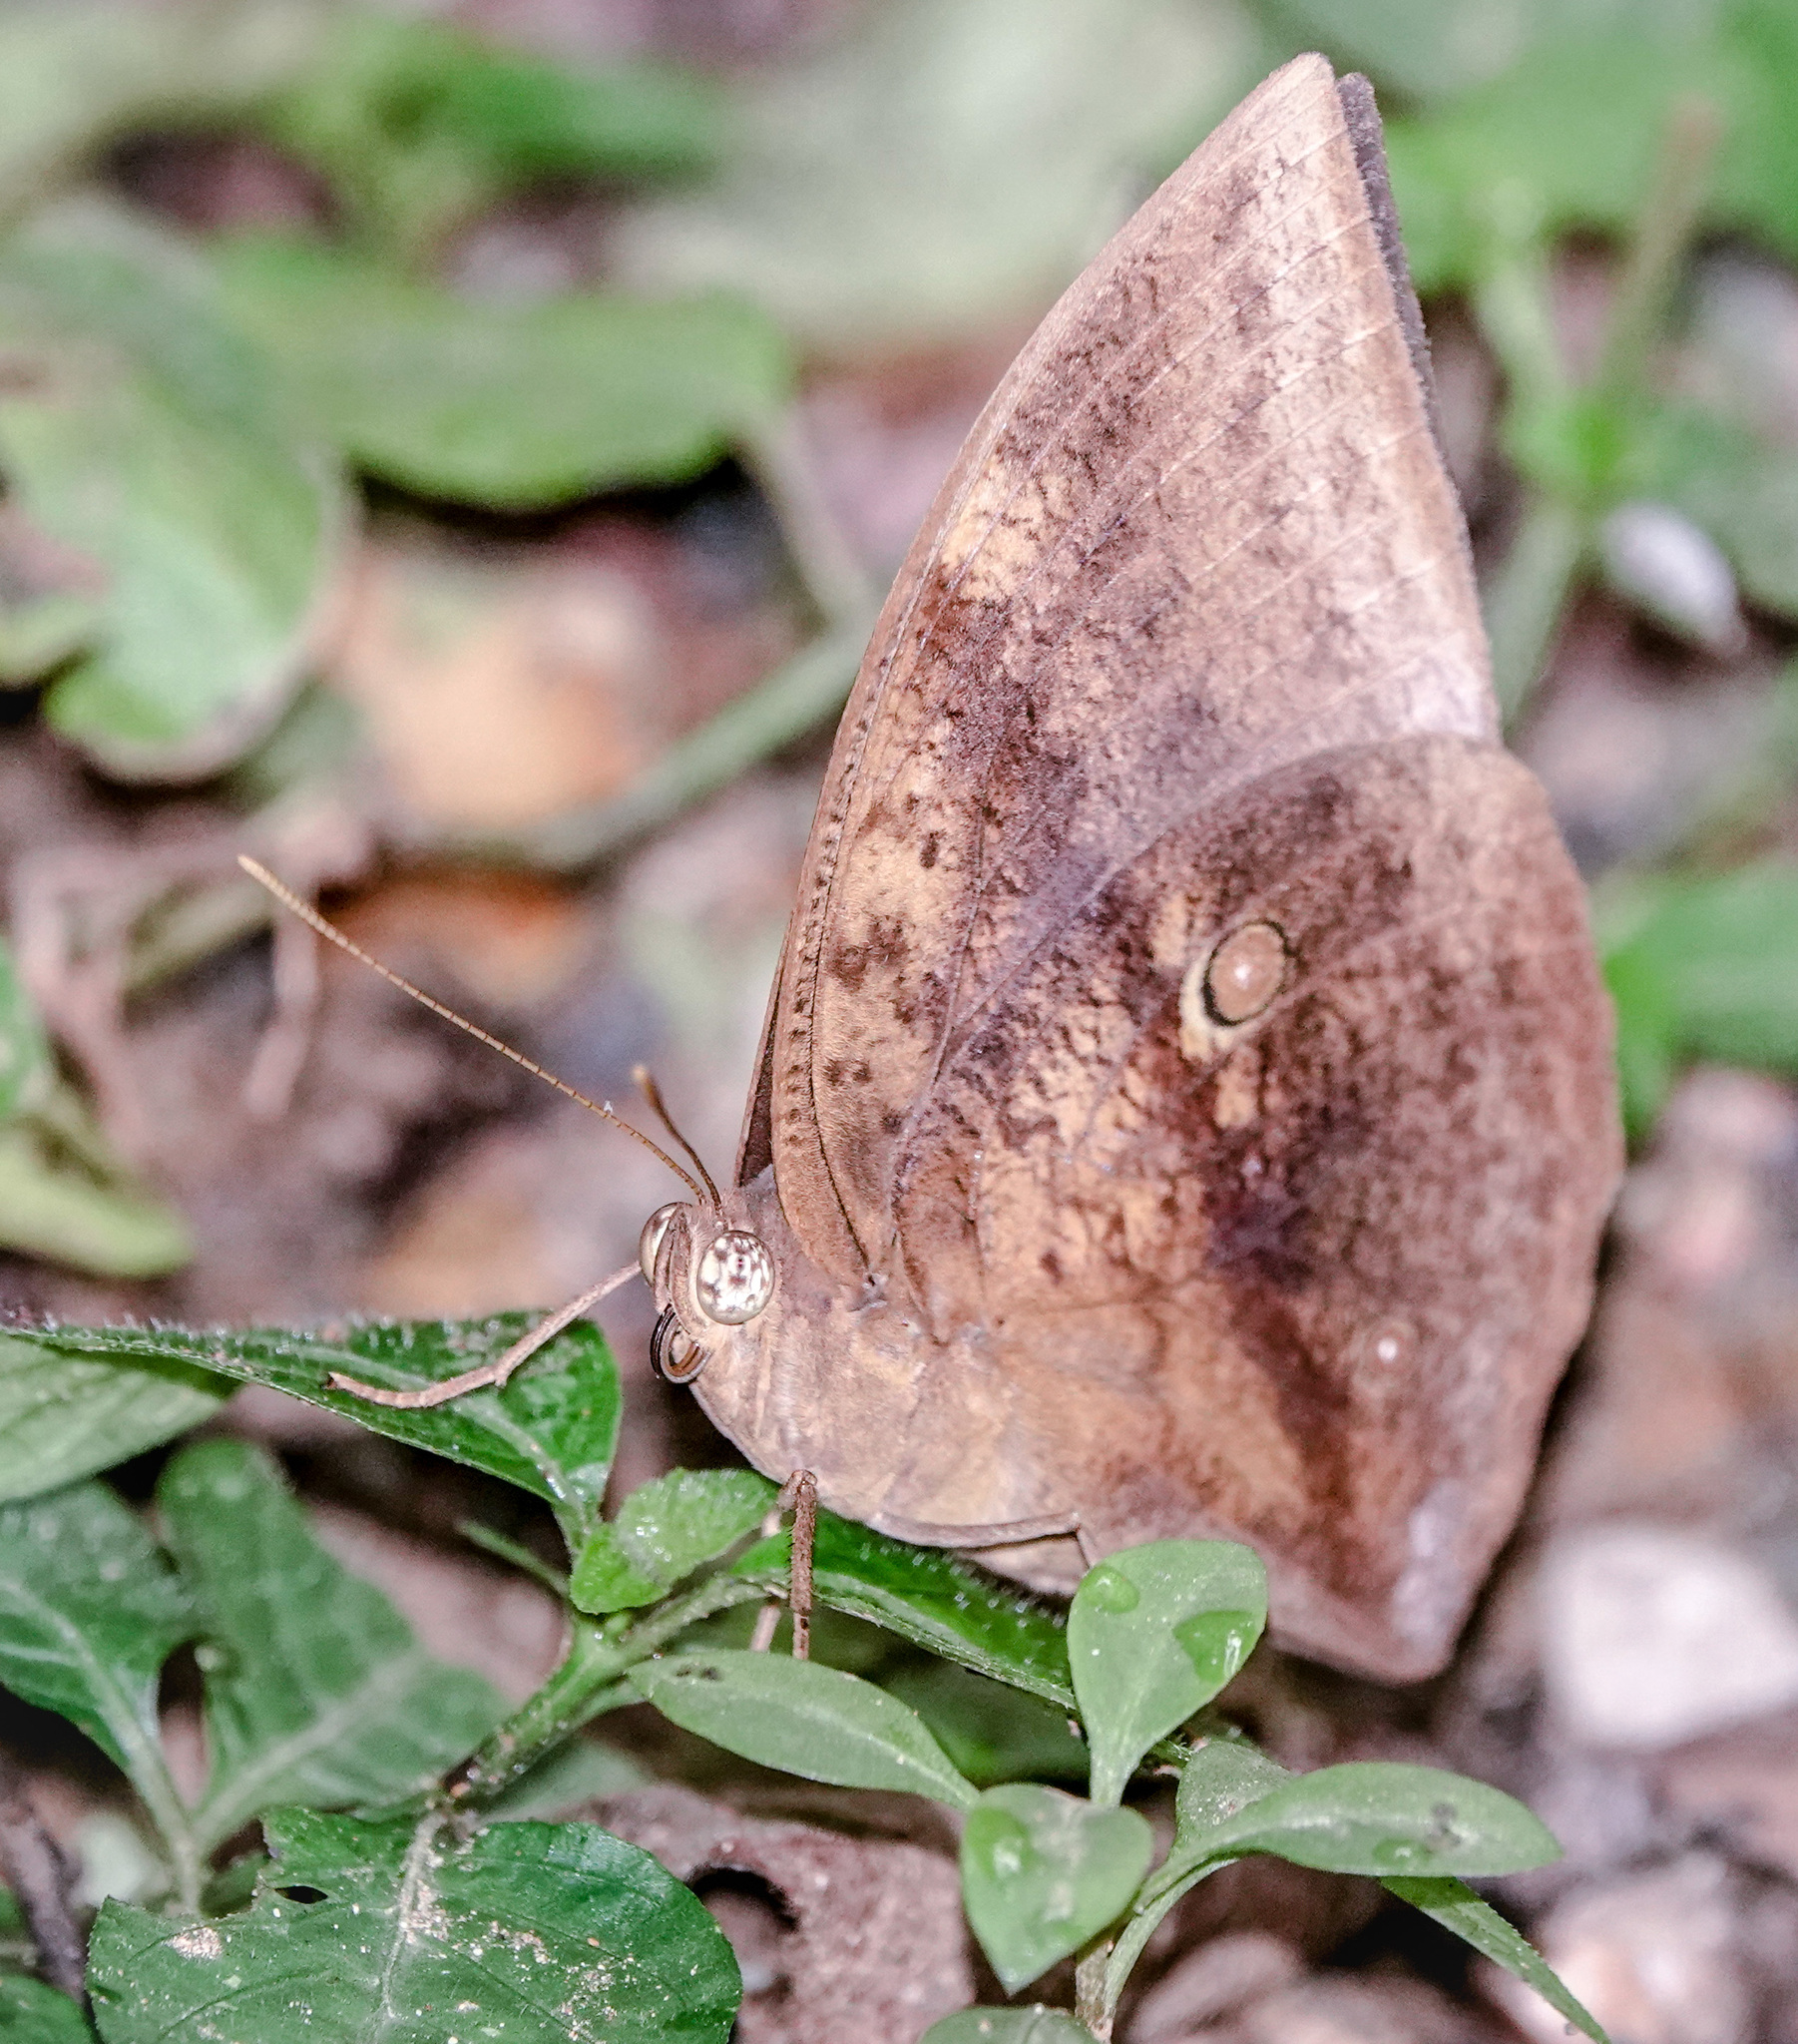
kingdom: Animalia
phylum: Arthropoda
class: Insecta
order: Lepidoptera
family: Nymphalidae
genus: Discophora
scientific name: Discophora timora
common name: Great duffer
